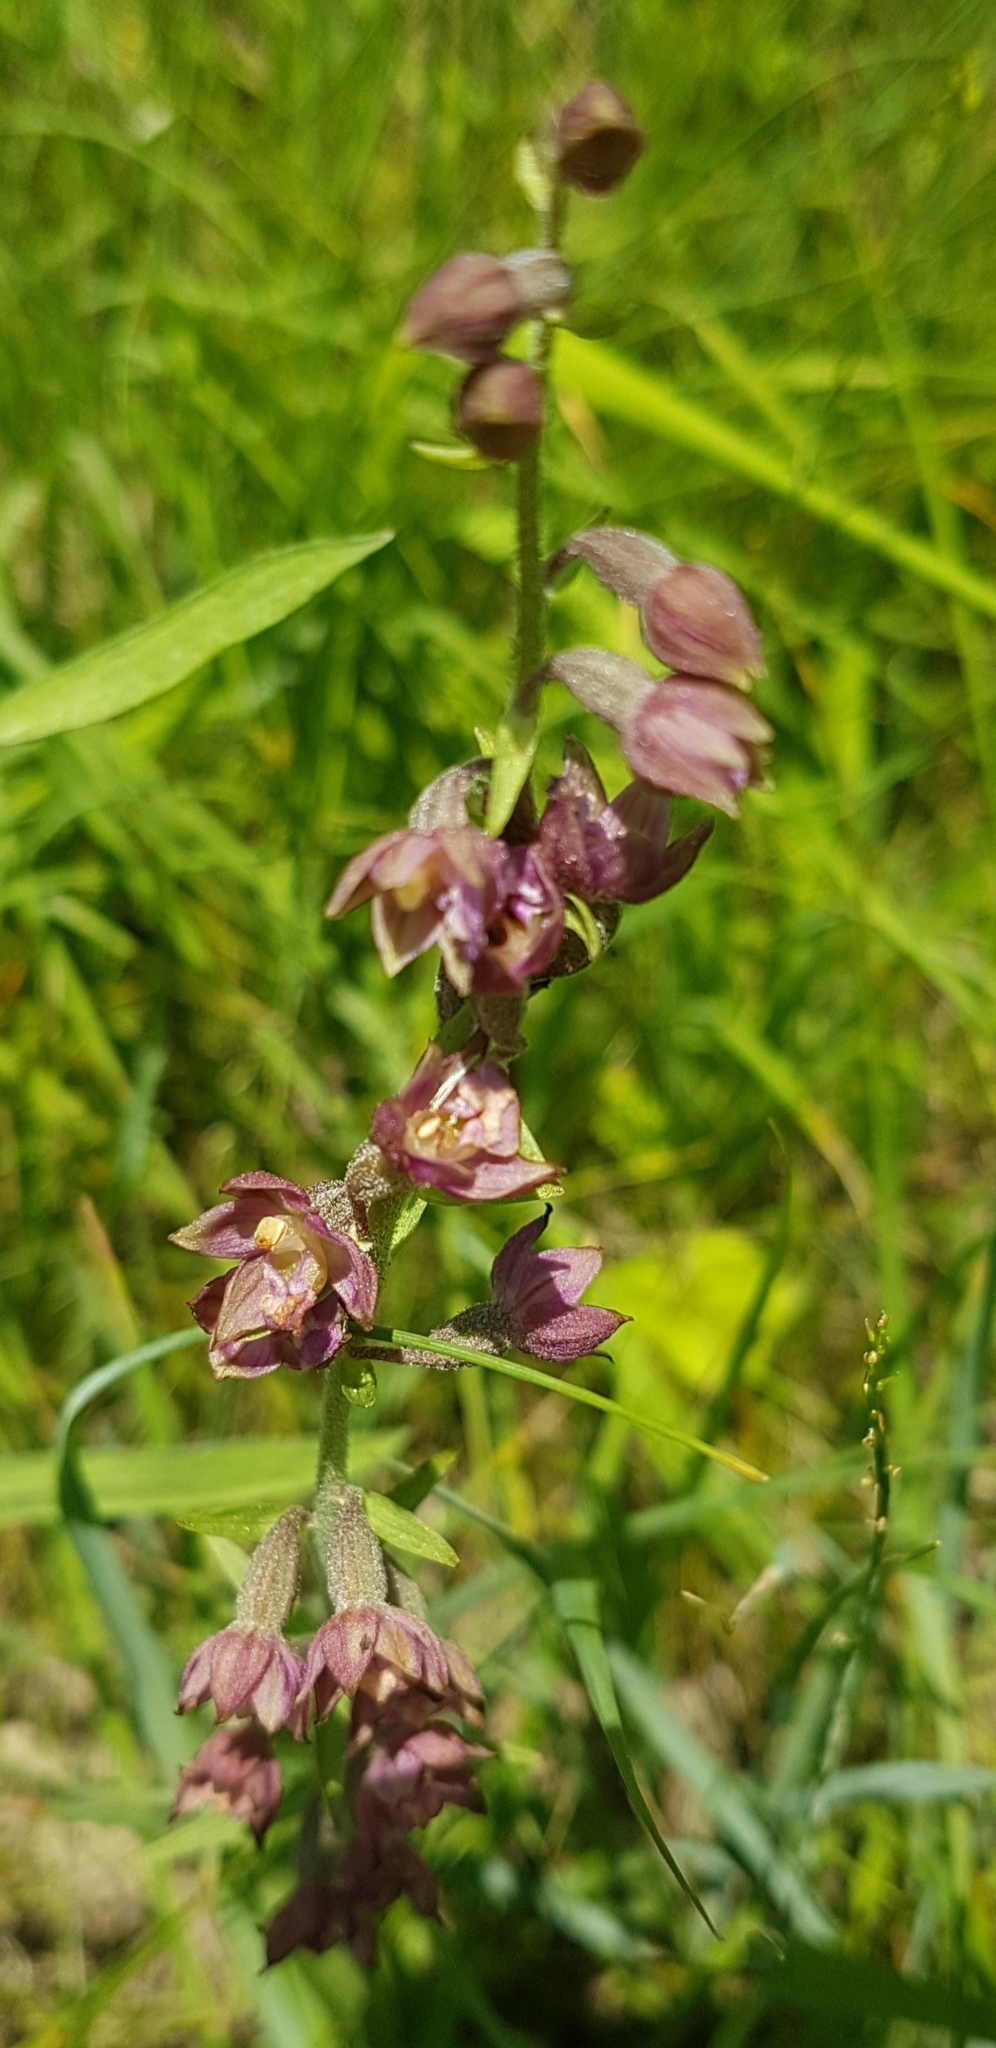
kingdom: Plantae
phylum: Tracheophyta
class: Liliopsida
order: Asparagales
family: Orchidaceae
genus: Epipactis
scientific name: Epipactis atrorubens
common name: Dark-red helleborine
